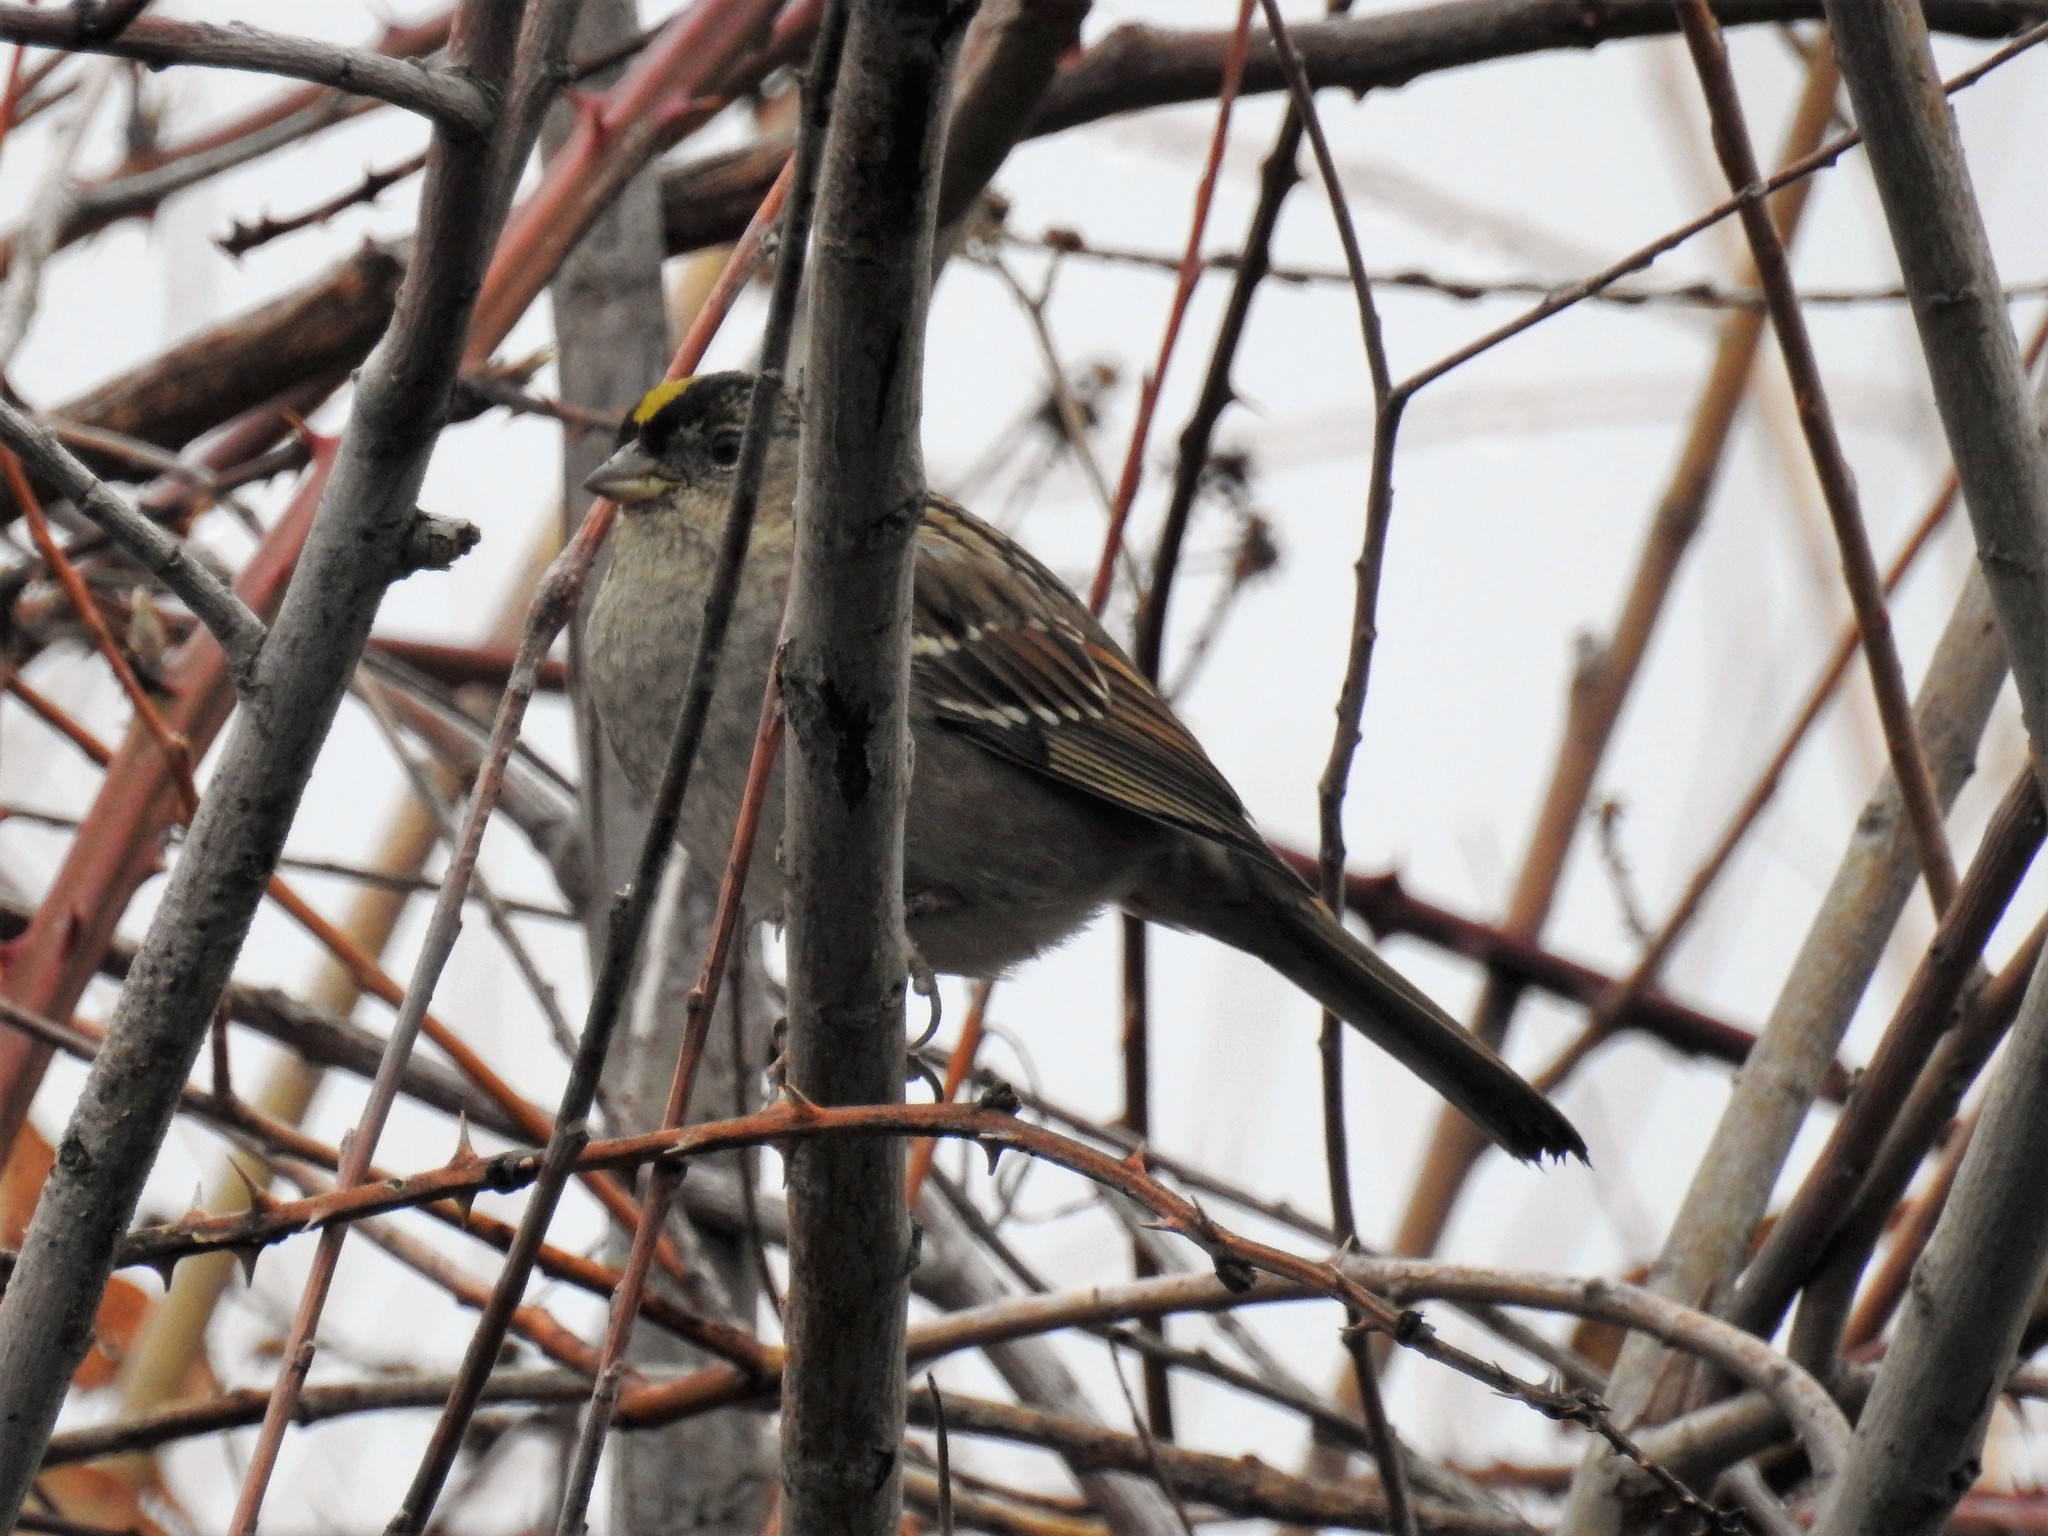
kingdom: Animalia
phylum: Chordata
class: Aves
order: Passeriformes
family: Passerellidae
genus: Zonotrichia
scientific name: Zonotrichia atricapilla
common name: Golden-crowned sparrow
